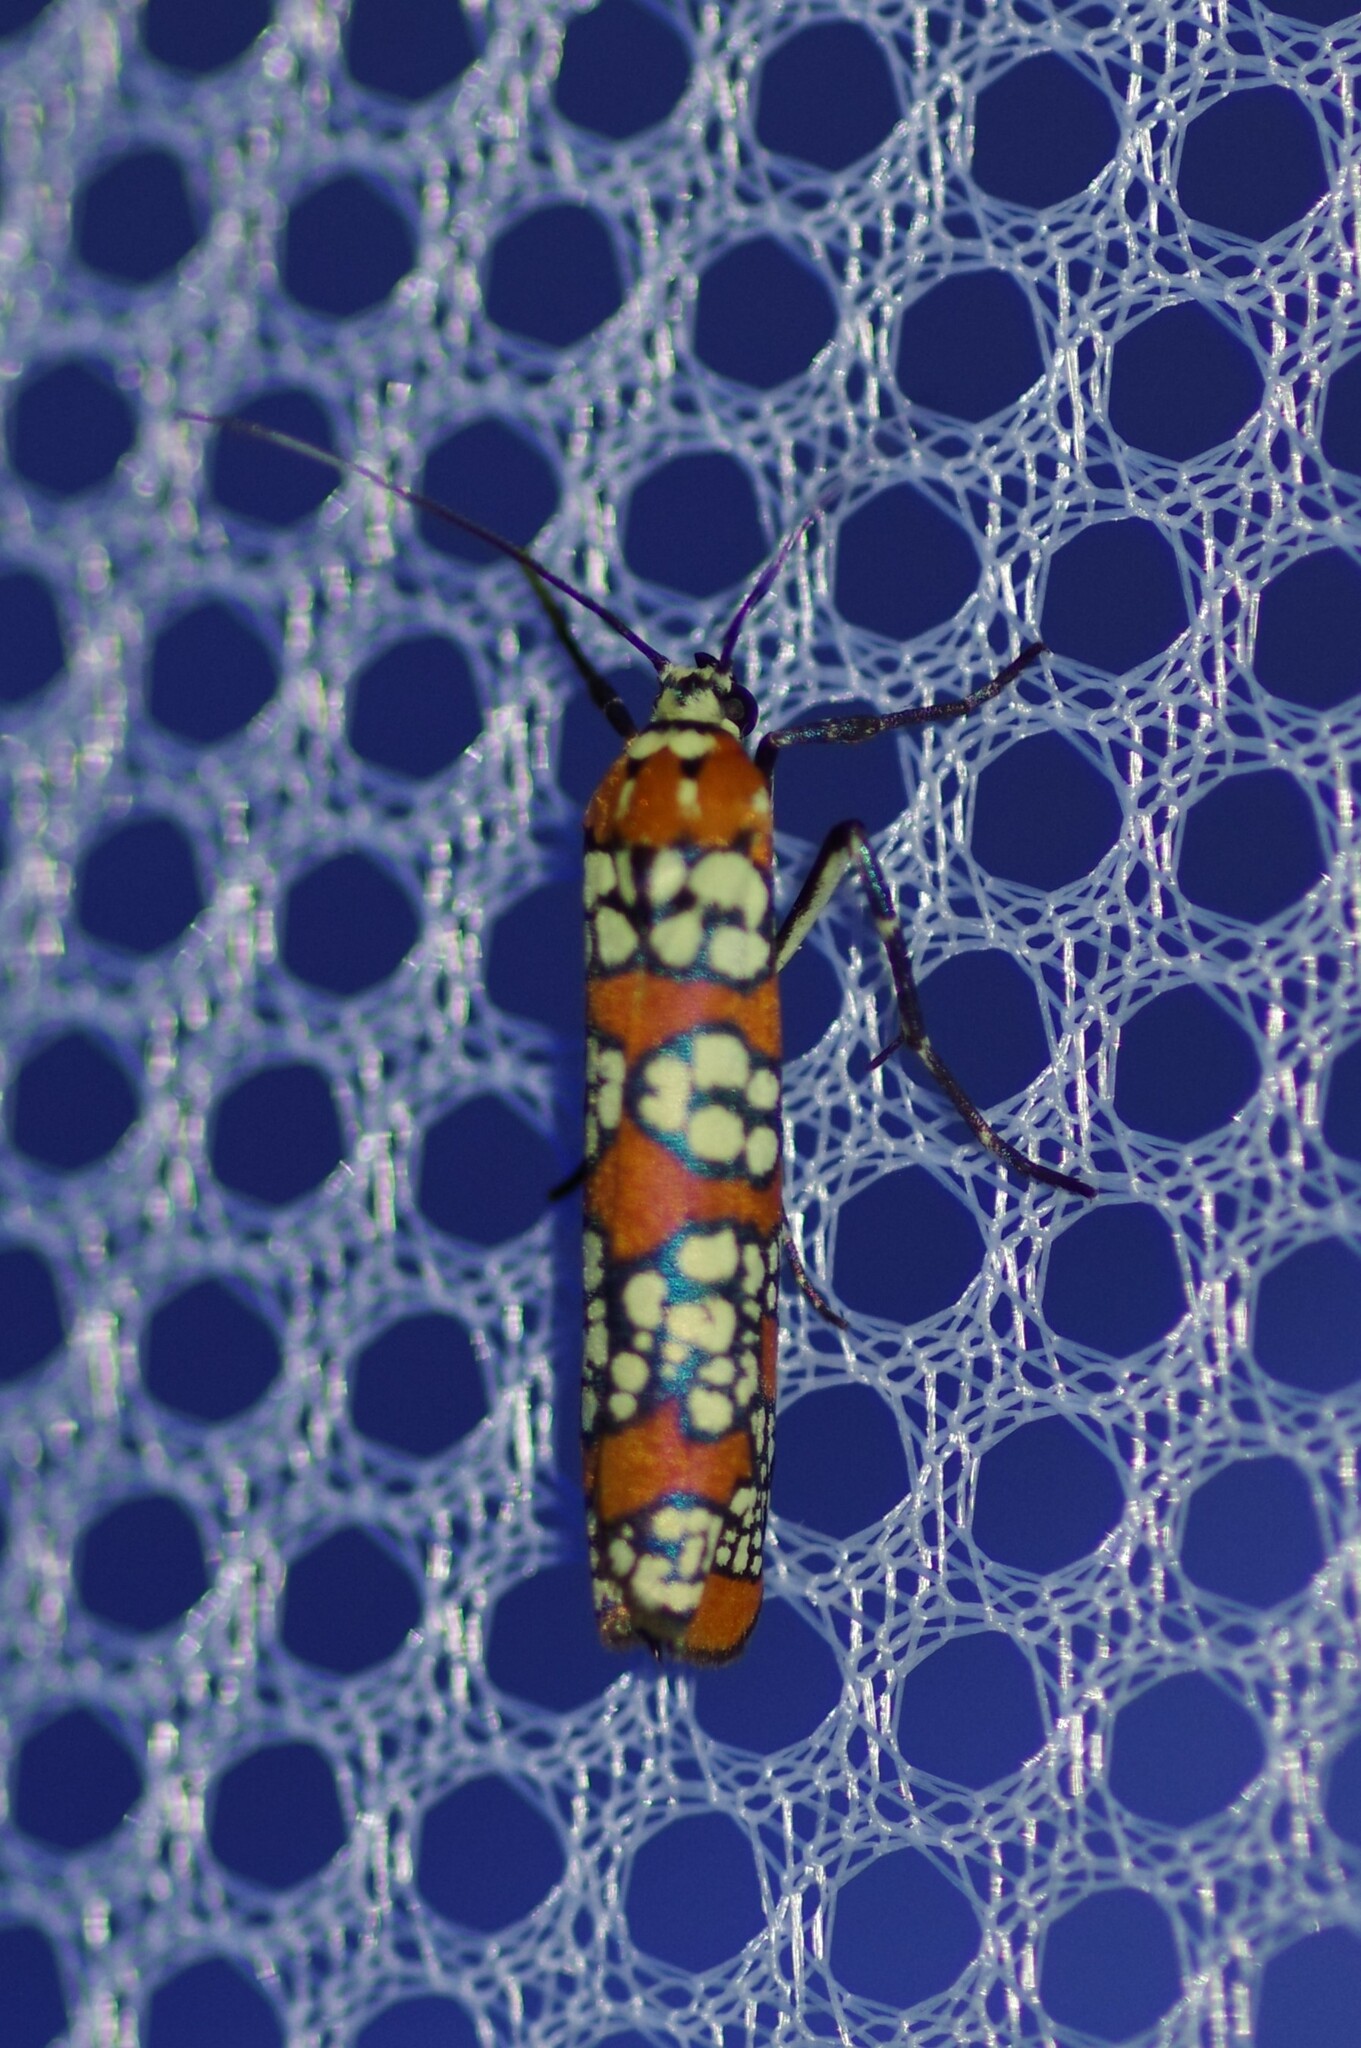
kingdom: Animalia
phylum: Arthropoda
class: Insecta
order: Lepidoptera
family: Attevidae
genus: Atteva
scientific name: Atteva punctella
